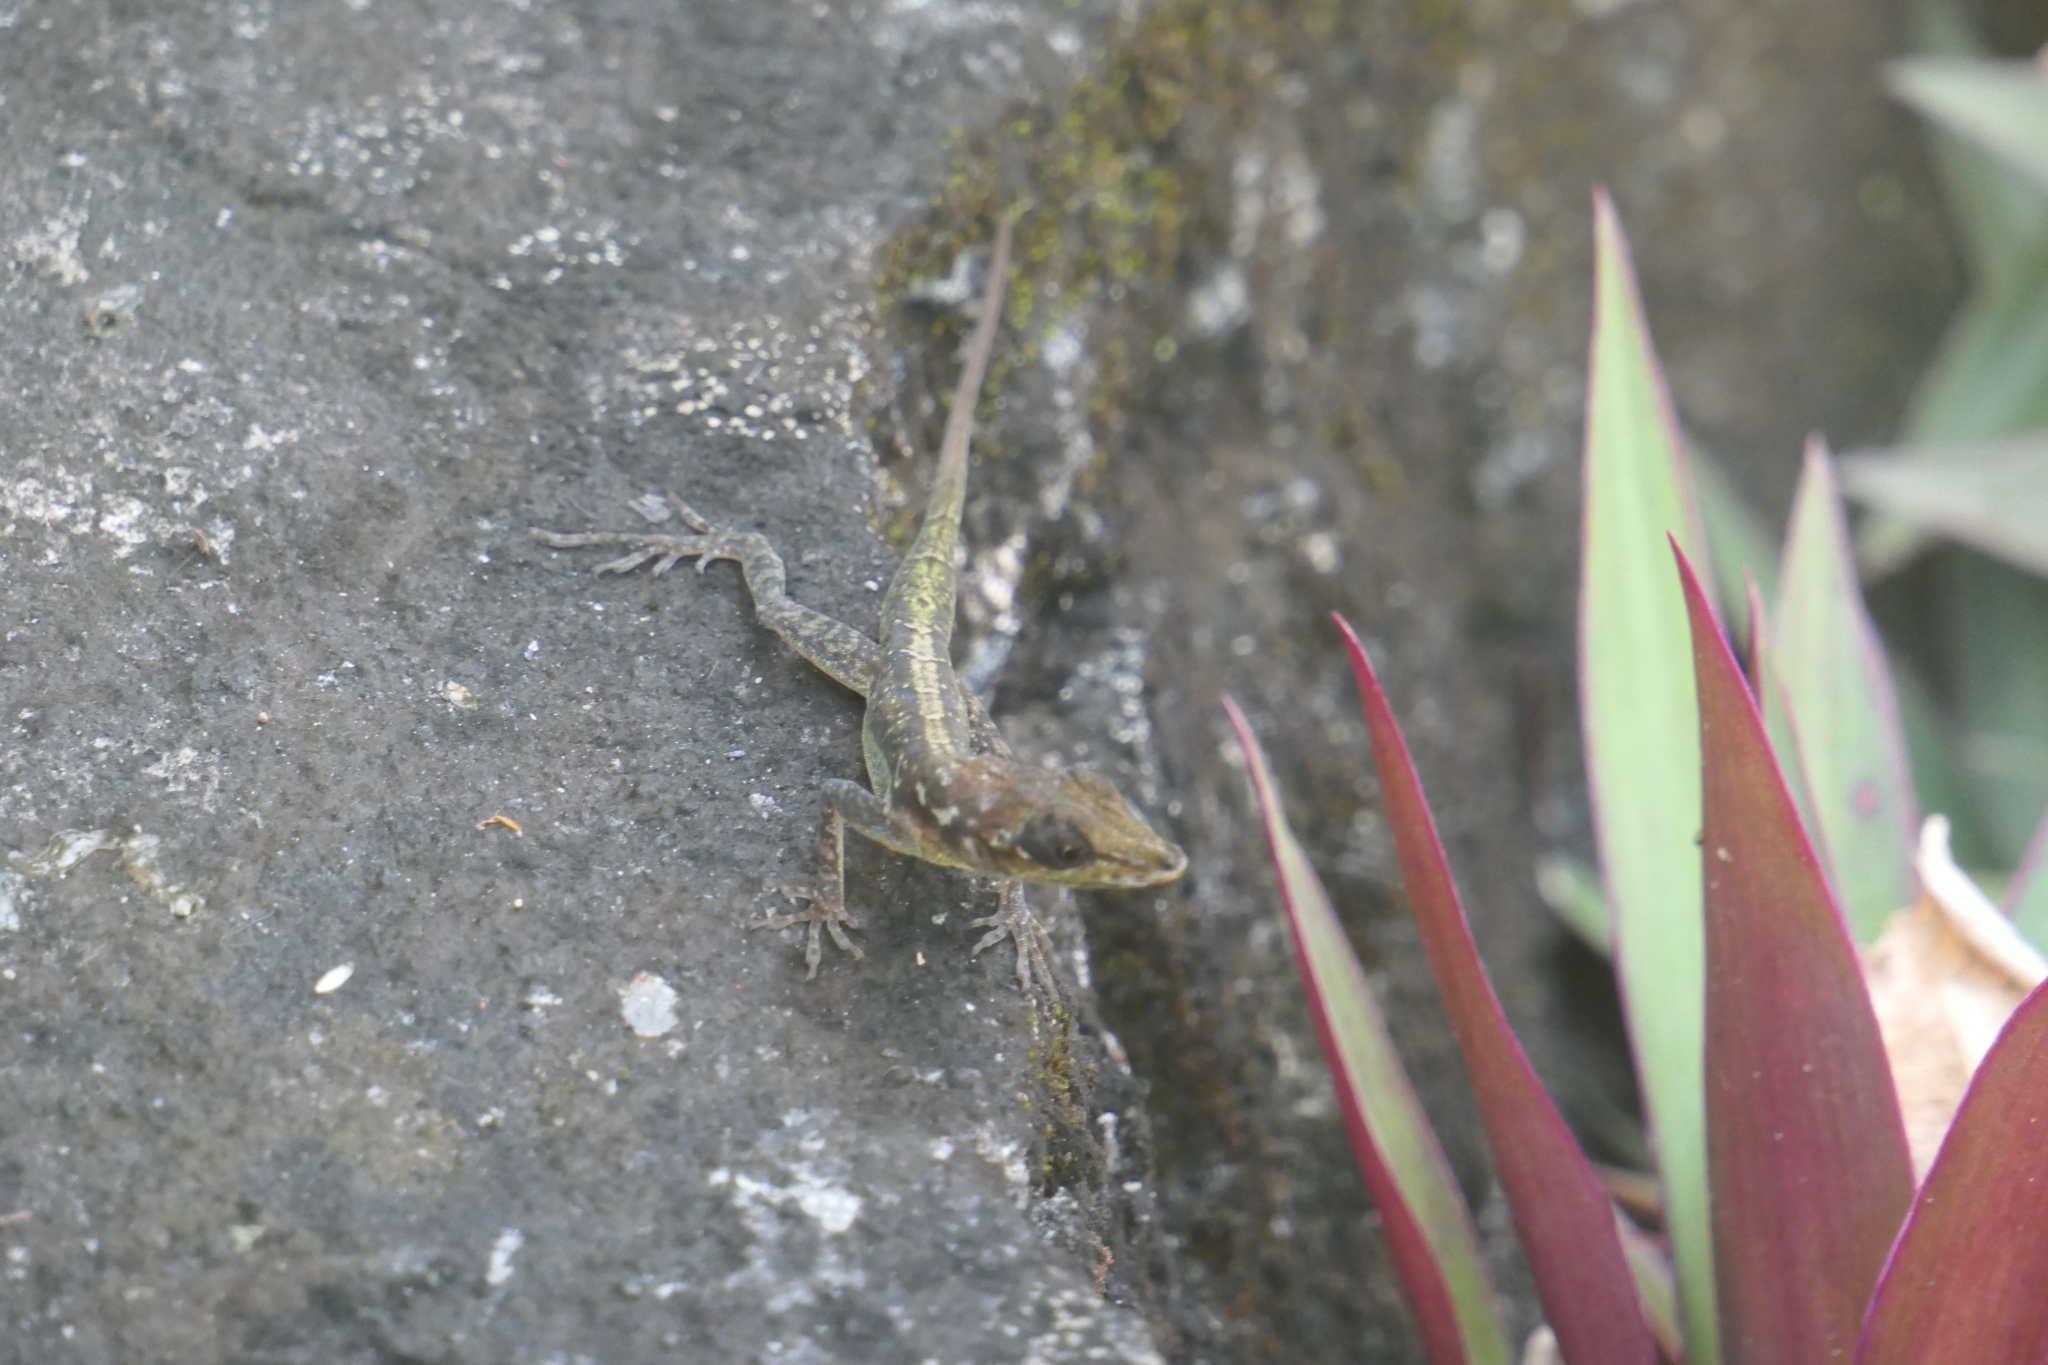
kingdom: Animalia
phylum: Chordata
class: Squamata
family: Dactyloidae
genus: Anolis
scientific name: Anolis roquet
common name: Martinique anole
